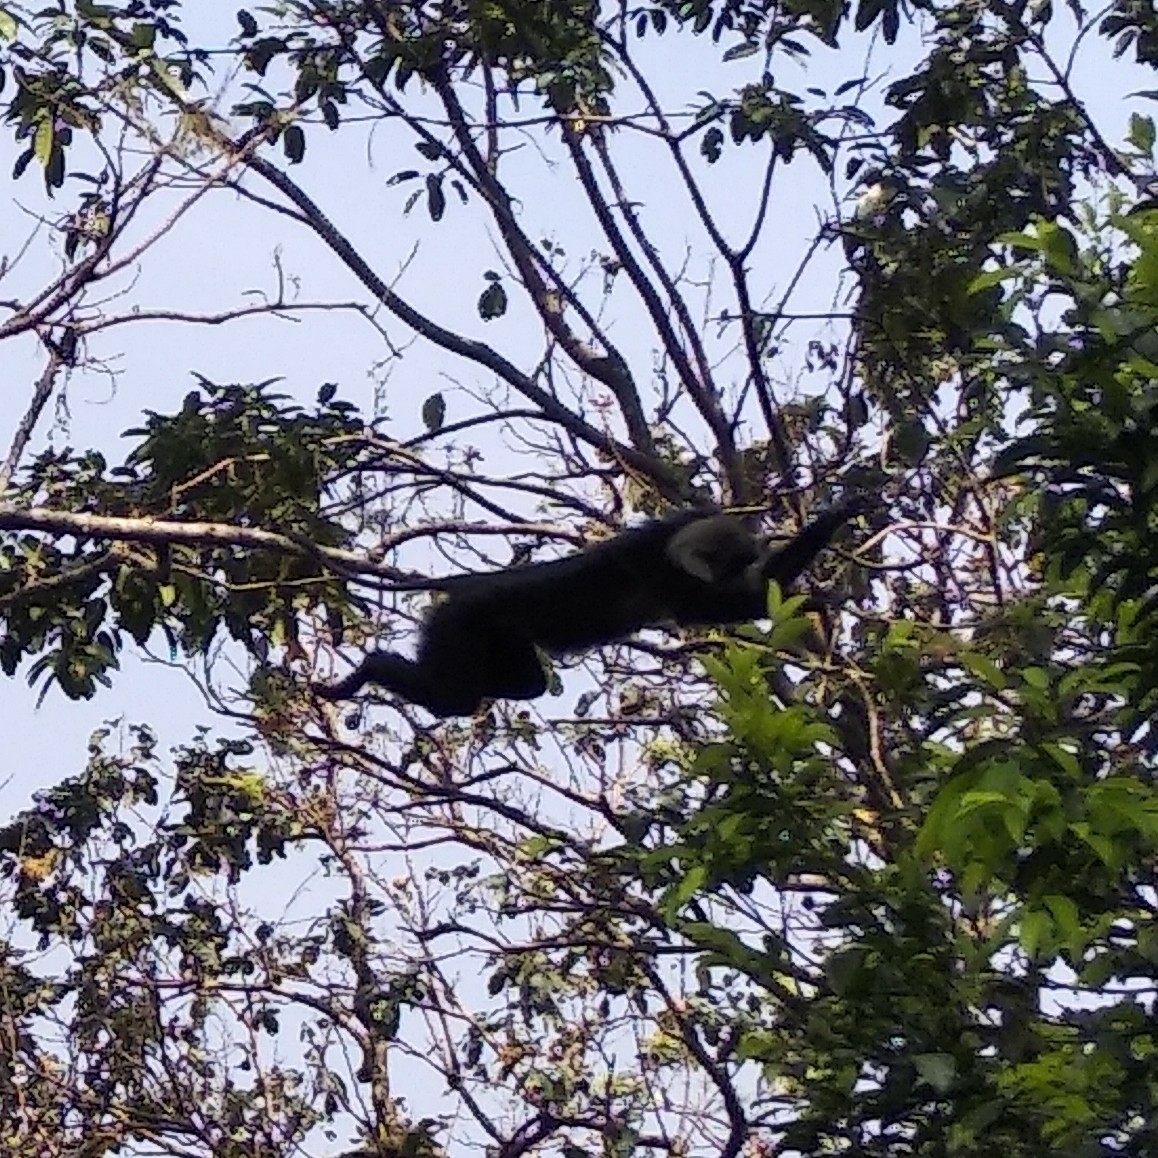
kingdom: Animalia
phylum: Chordata
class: Mammalia
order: Primates
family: Cercopithecidae
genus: Macaca
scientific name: Macaca silenus
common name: Lion-tailed macaque
